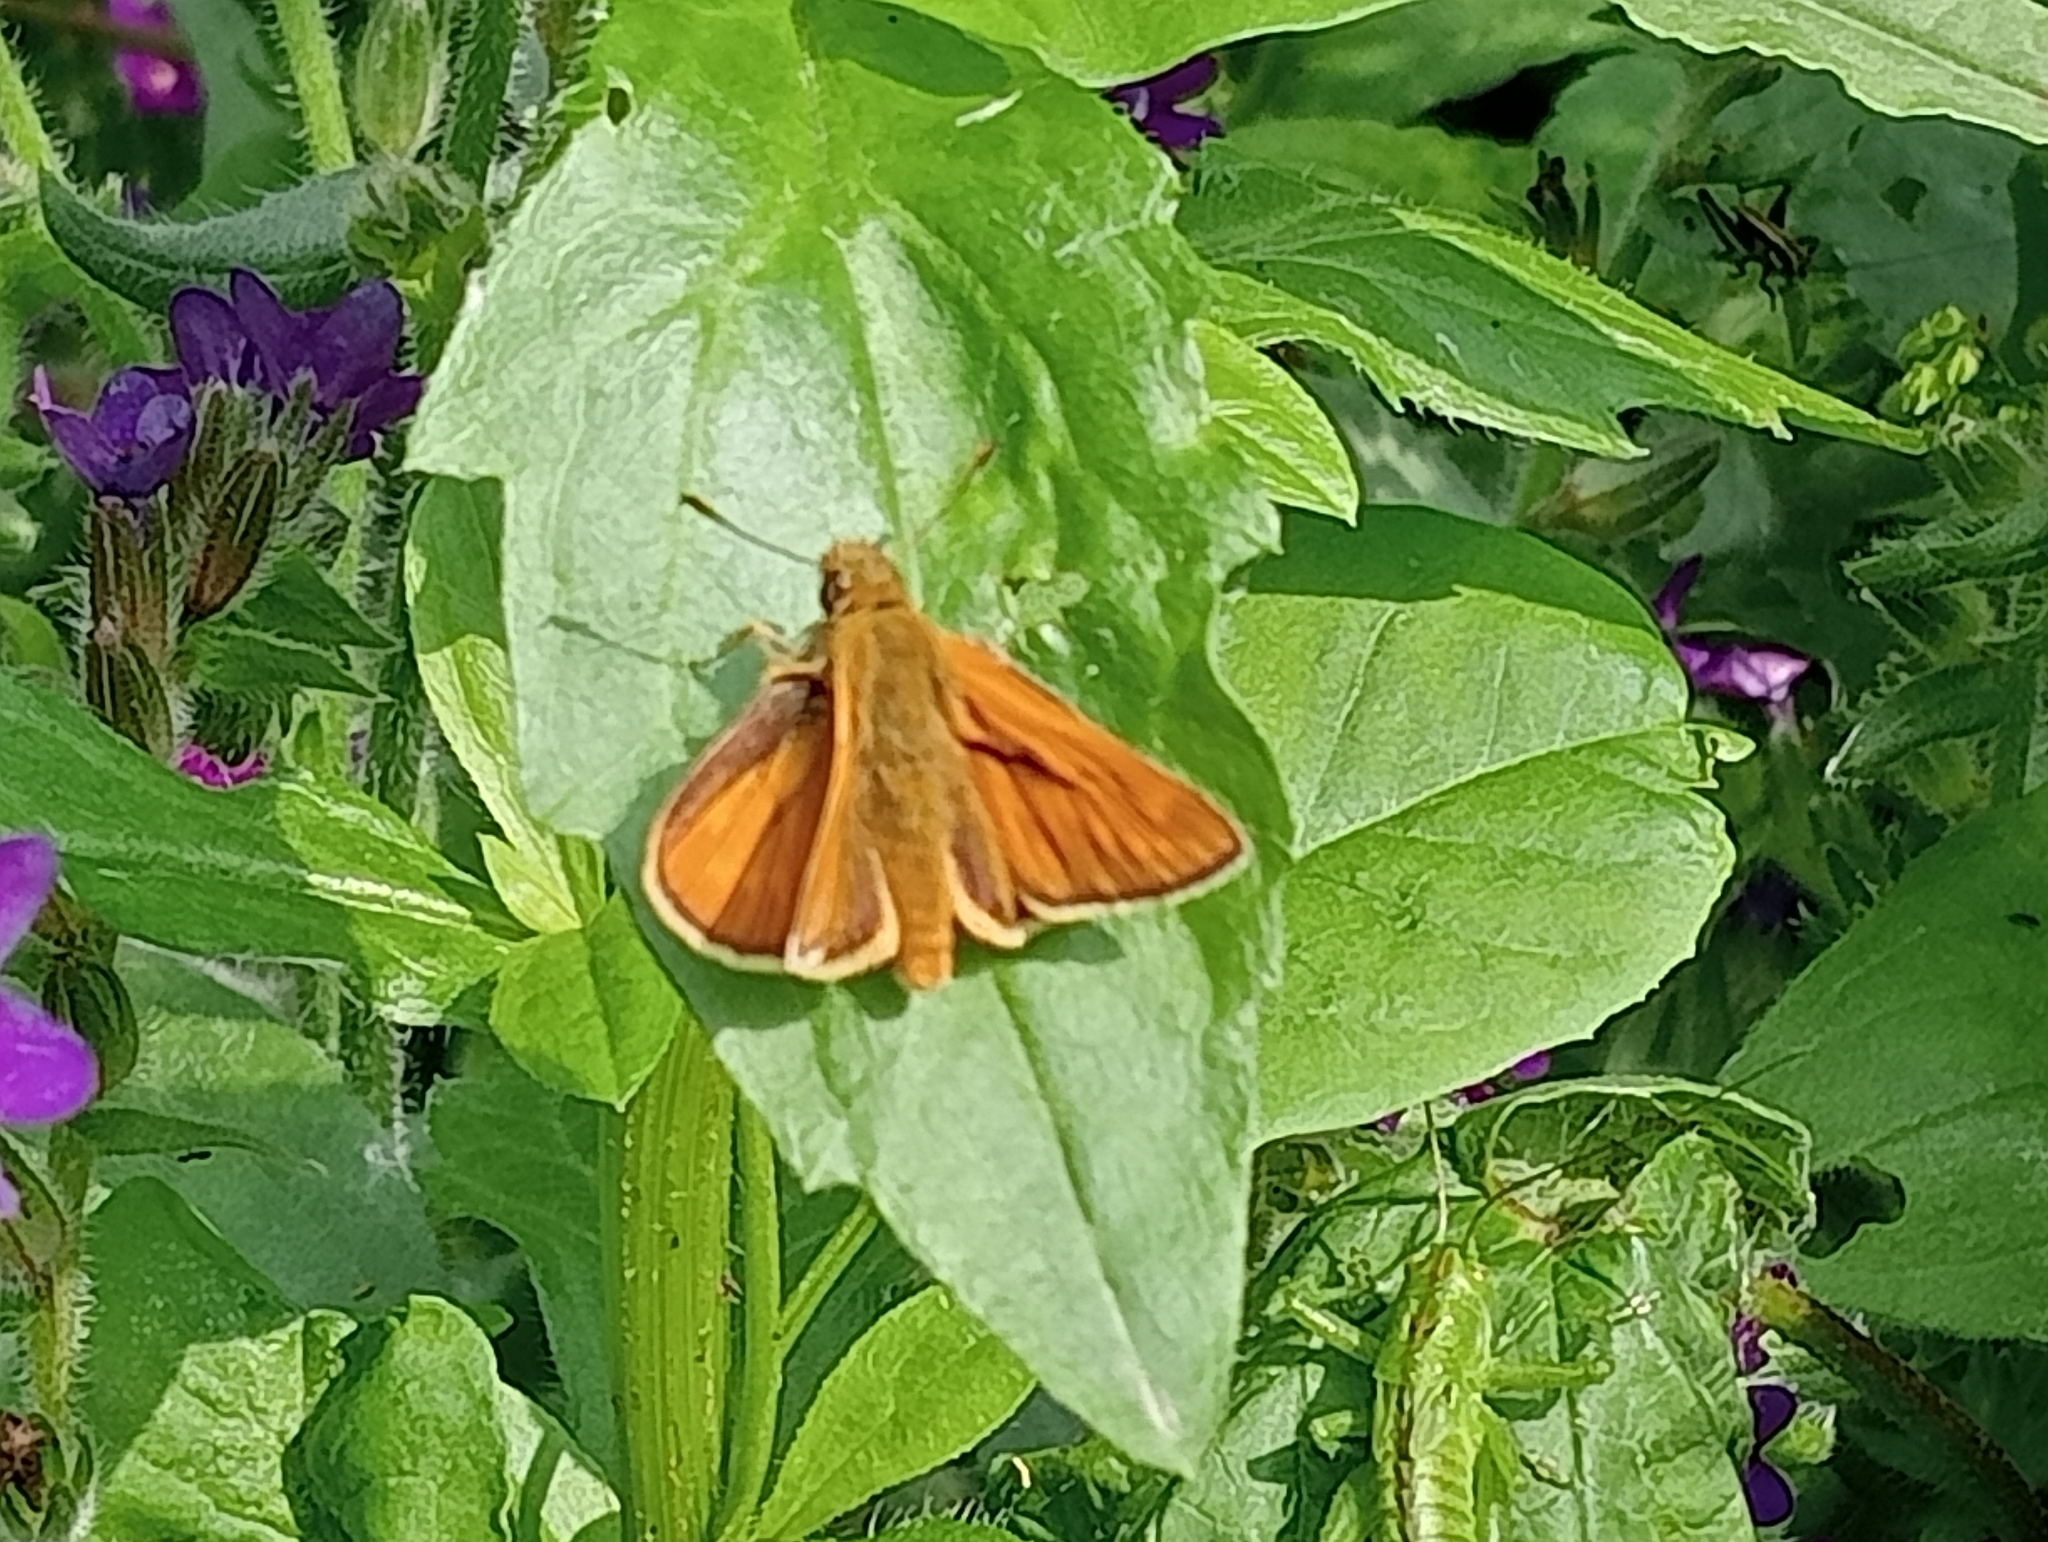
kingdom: Animalia
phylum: Arthropoda
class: Insecta
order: Lepidoptera
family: Hesperiidae
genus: Ochlodes
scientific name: Ochlodes venata
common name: Large skipper
